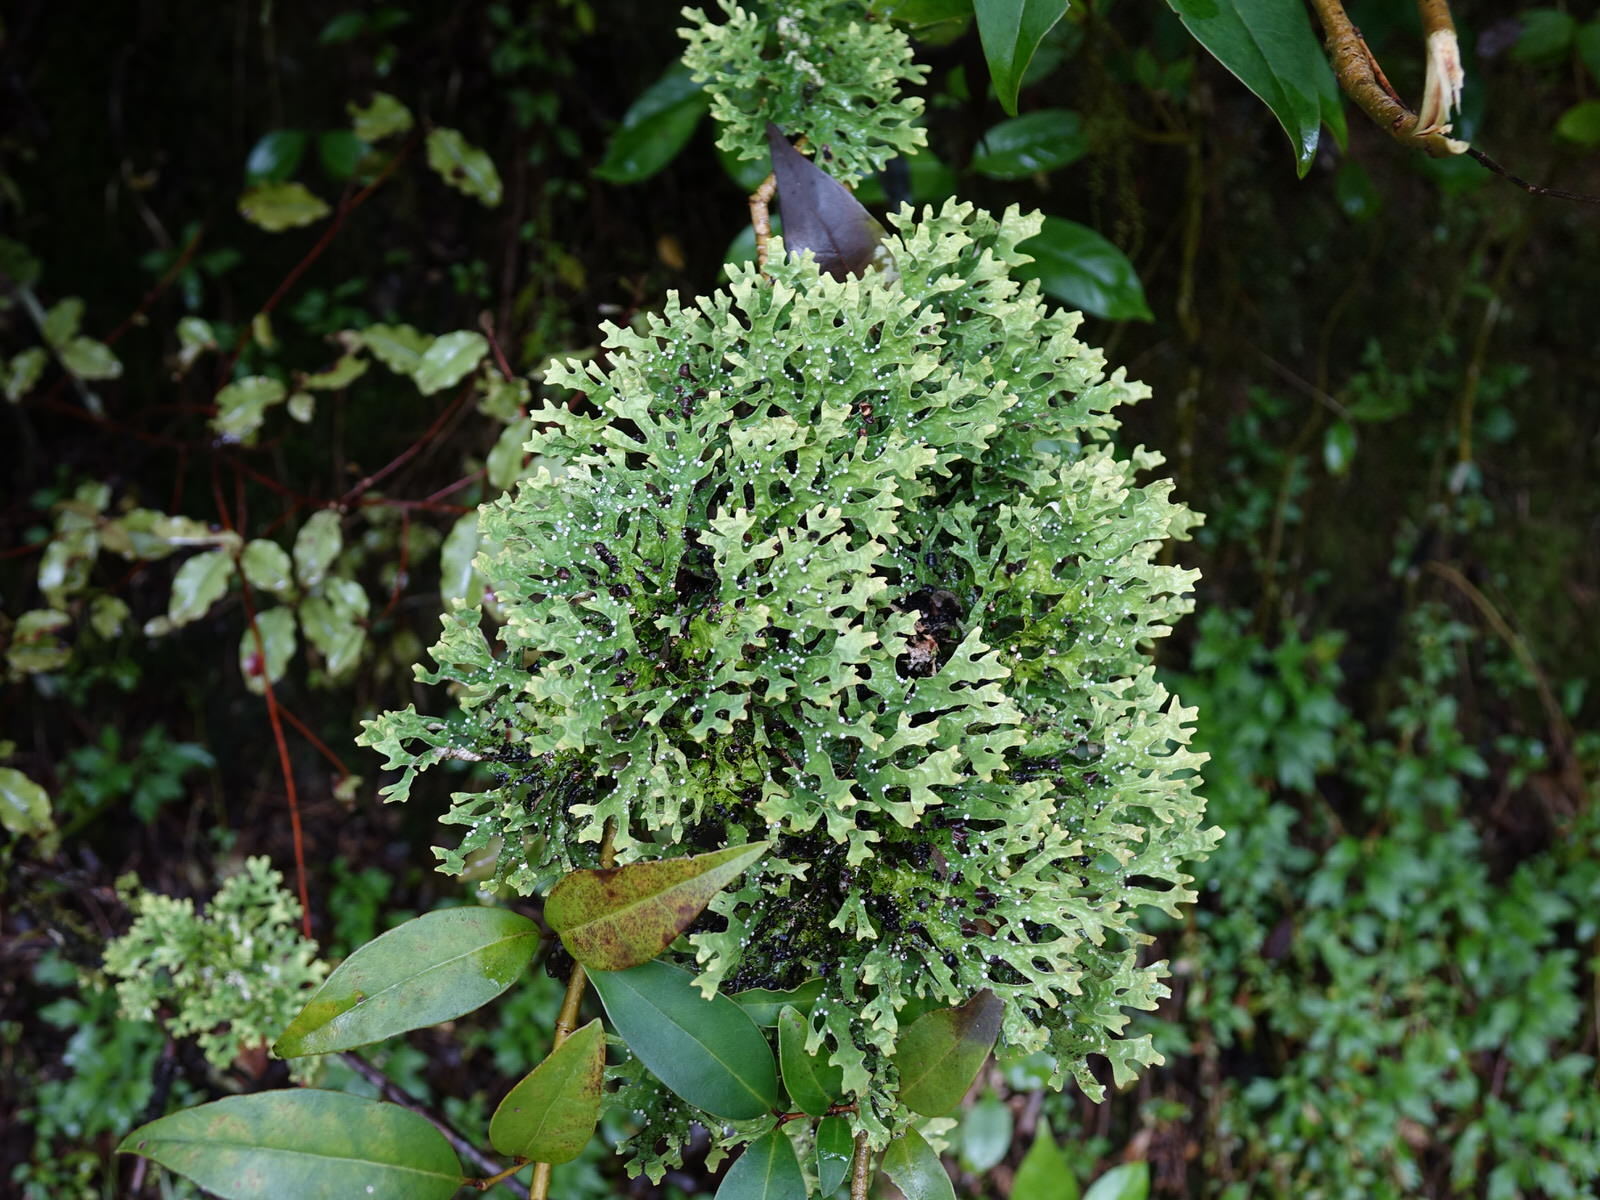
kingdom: Fungi
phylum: Ascomycota
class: Lecanoromycetes
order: Peltigerales
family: Lobariaceae
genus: Pseudocyphellaria
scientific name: Pseudocyphellaria rufovirescens
